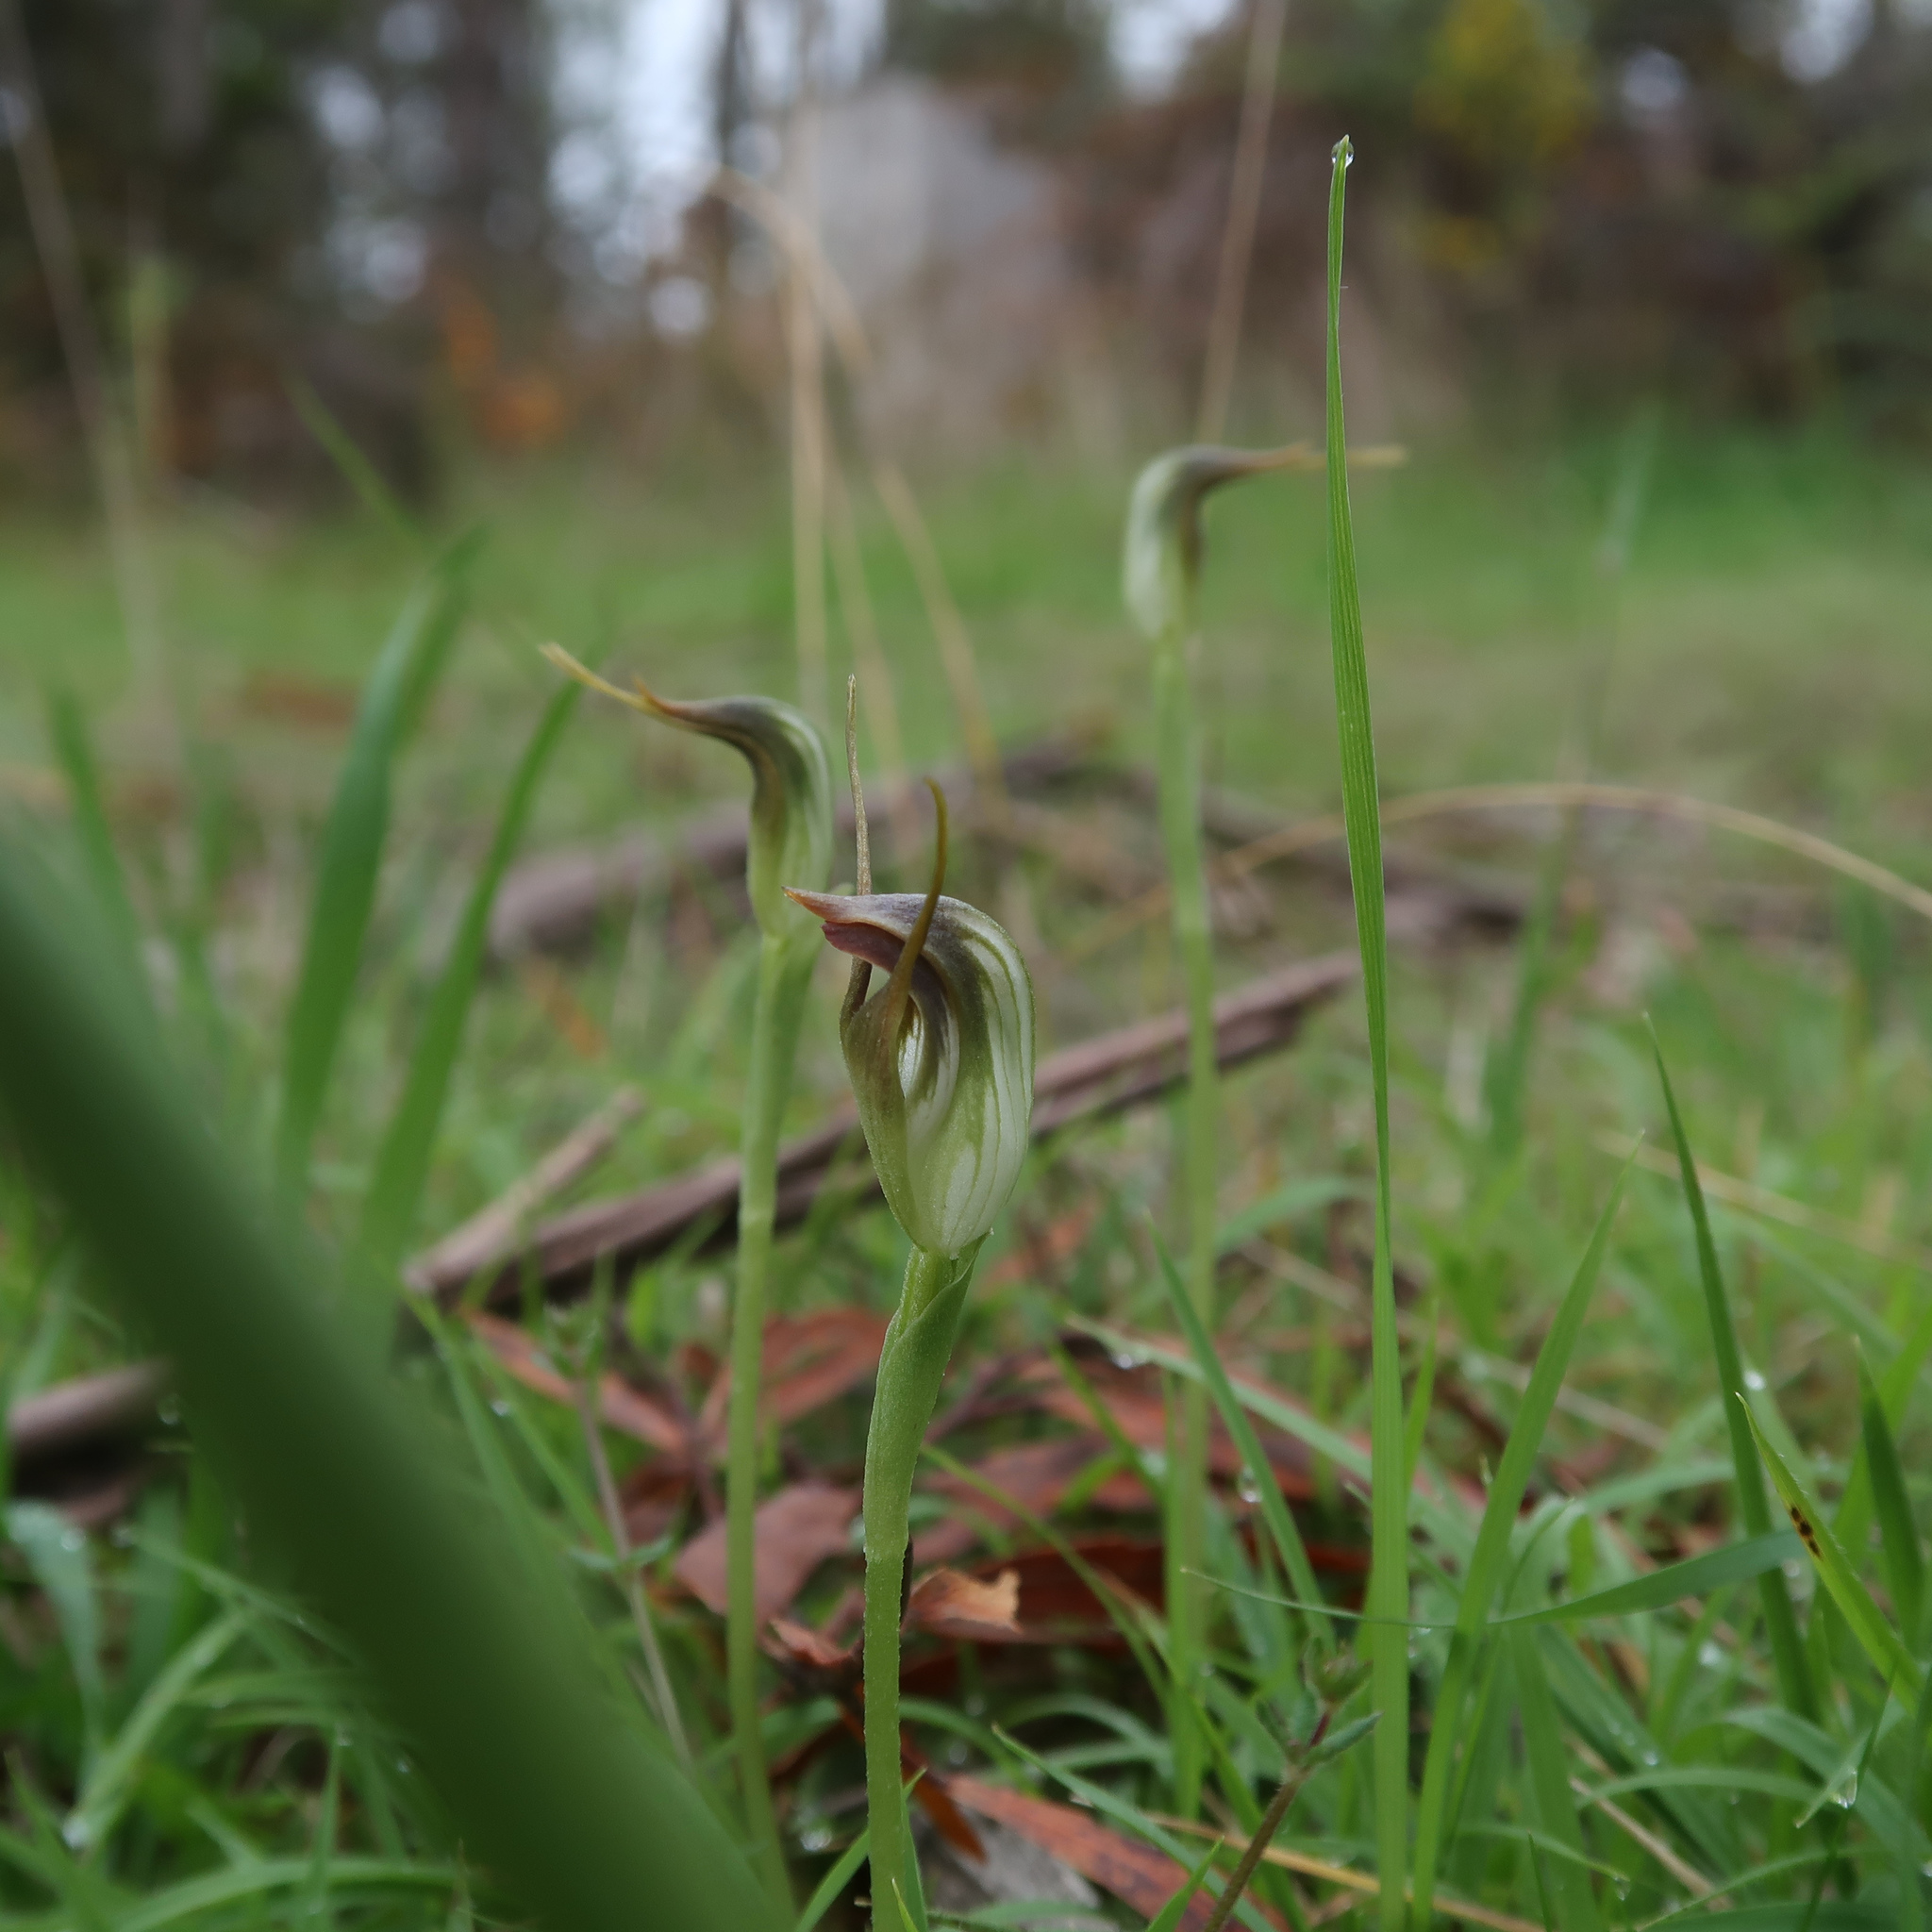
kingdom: Plantae
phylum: Tracheophyta
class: Liliopsida
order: Asparagales
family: Orchidaceae
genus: Pterostylis
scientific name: Pterostylis pedunculata
